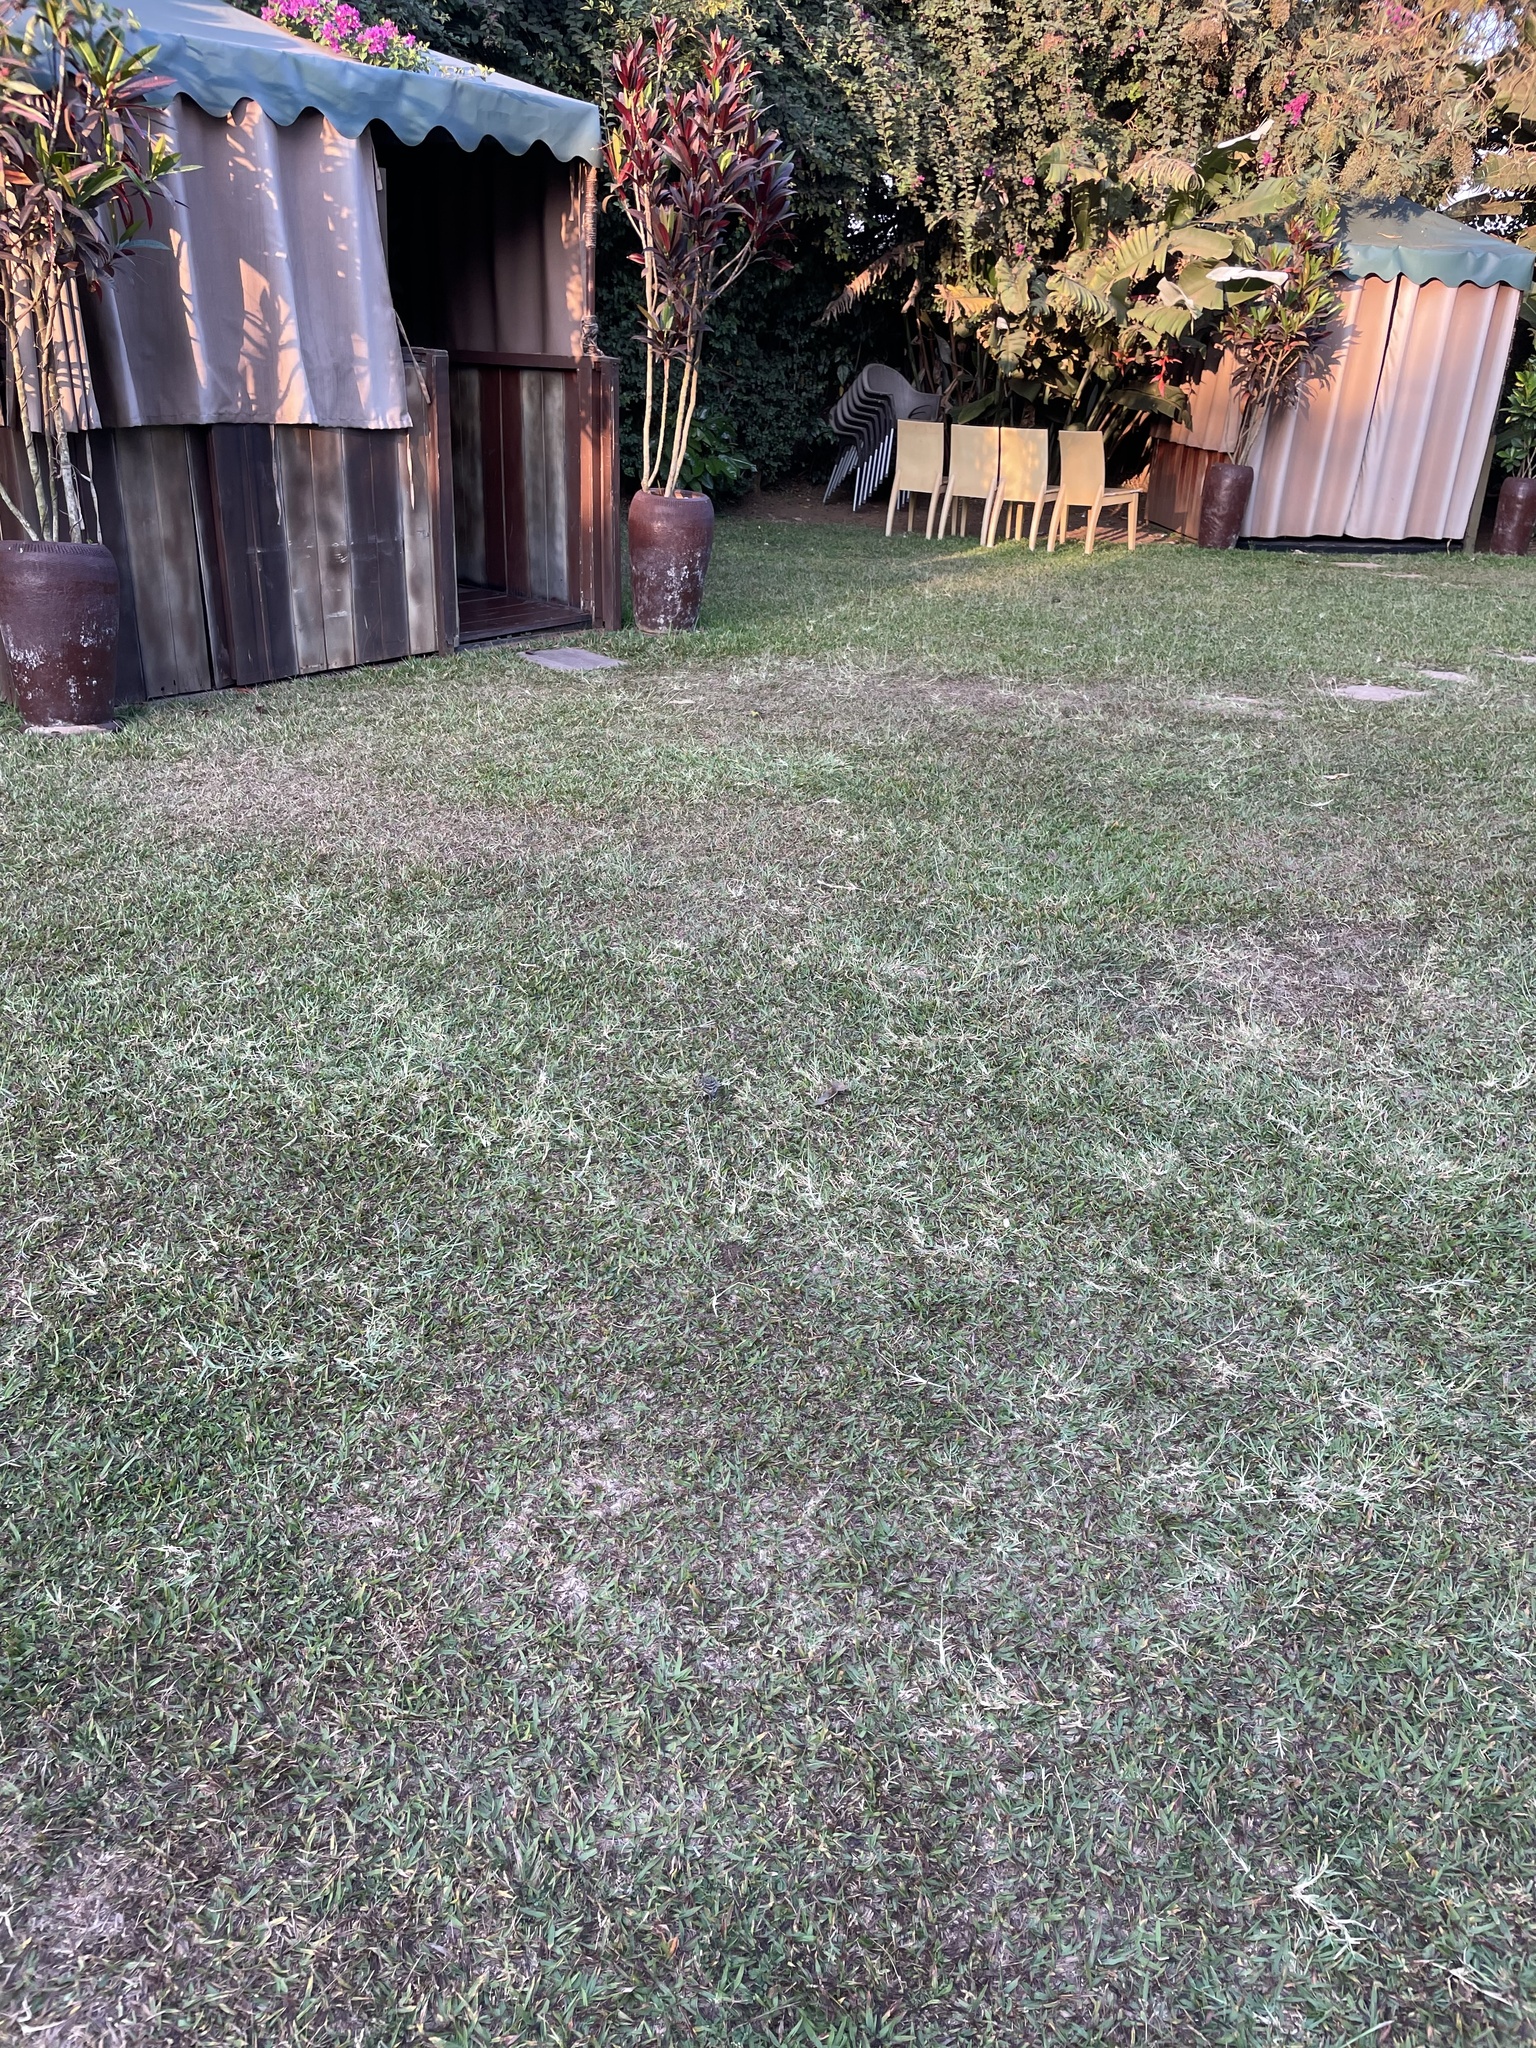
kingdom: Animalia
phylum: Chordata
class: Aves
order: Passeriformes
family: Fringillidae
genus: Crithagra
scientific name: Crithagra striolata
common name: Streaky seedeater
